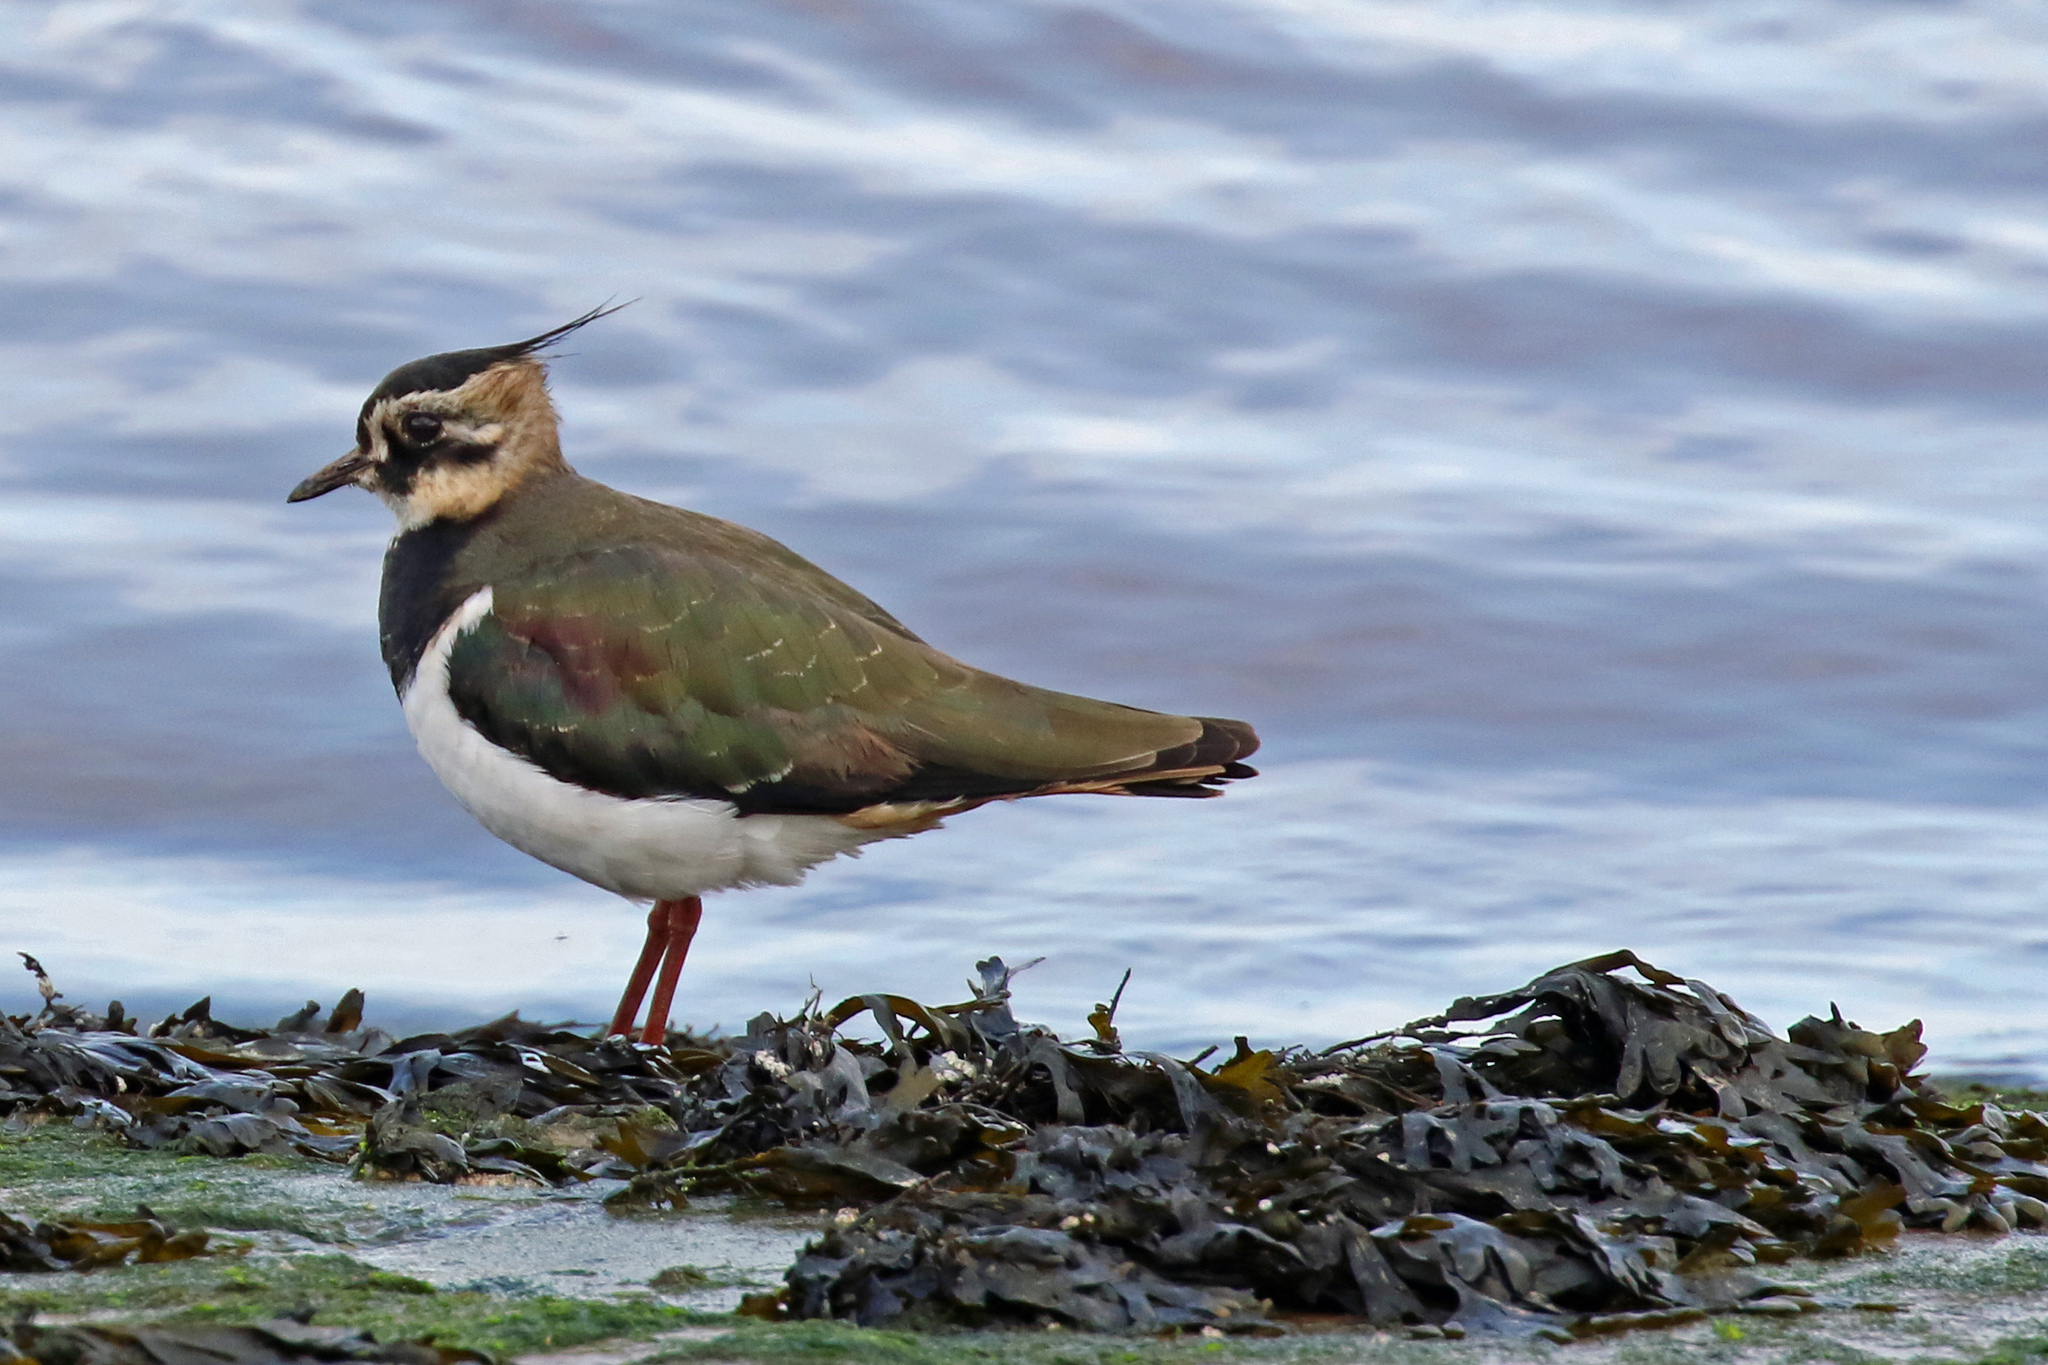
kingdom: Animalia
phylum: Chordata
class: Aves
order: Charadriiformes
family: Charadriidae
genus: Vanellus
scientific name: Vanellus vanellus
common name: Northern lapwing
